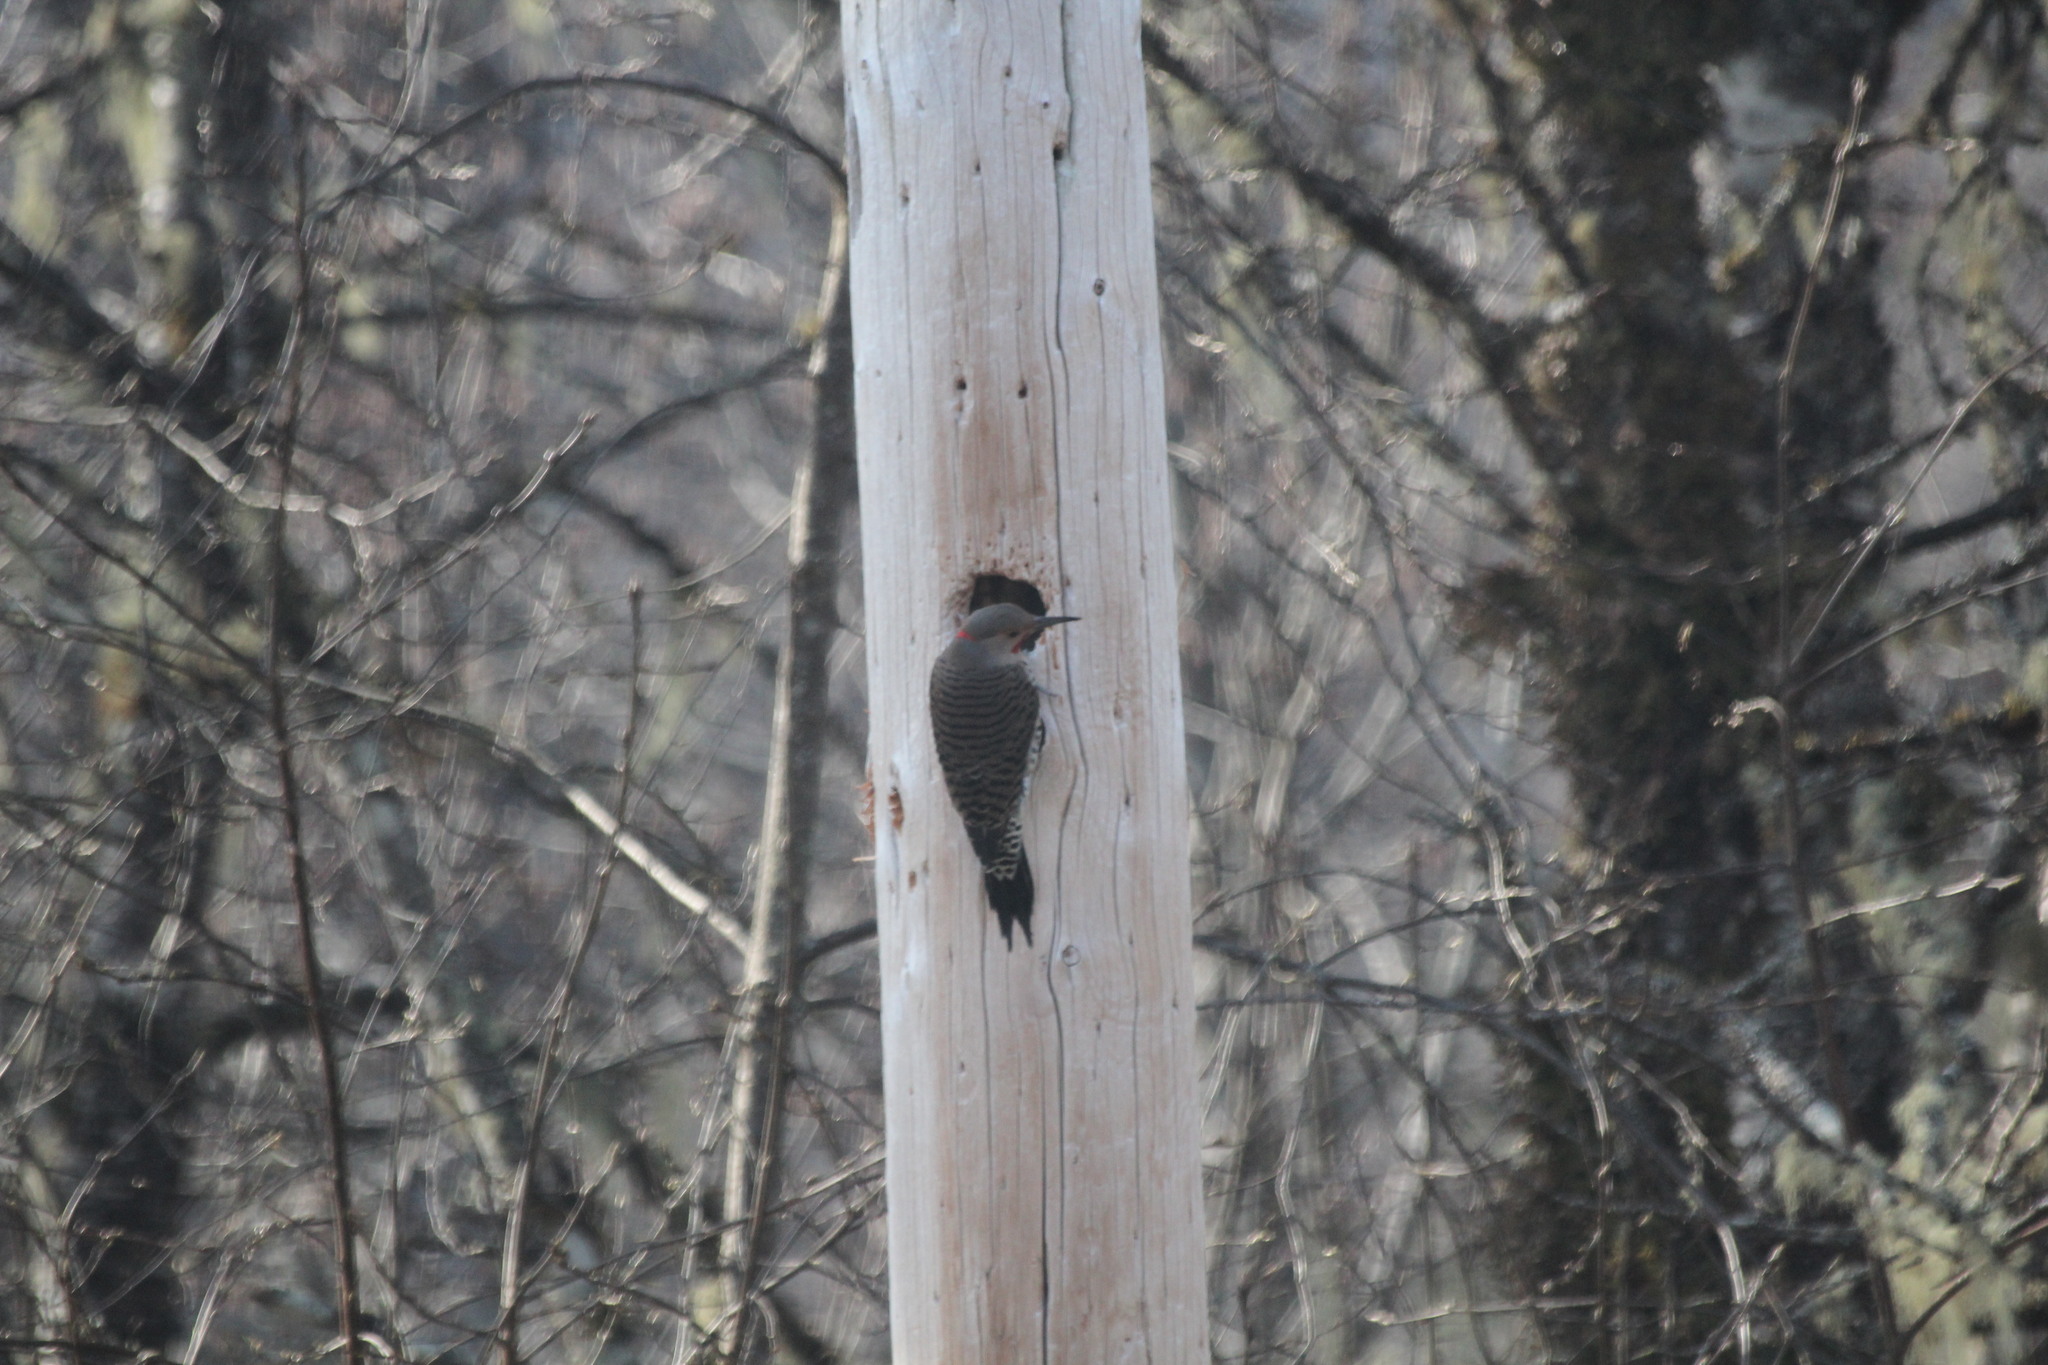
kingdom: Animalia
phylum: Chordata
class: Aves
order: Piciformes
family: Picidae
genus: Colaptes
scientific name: Colaptes auratus
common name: Northern flicker
